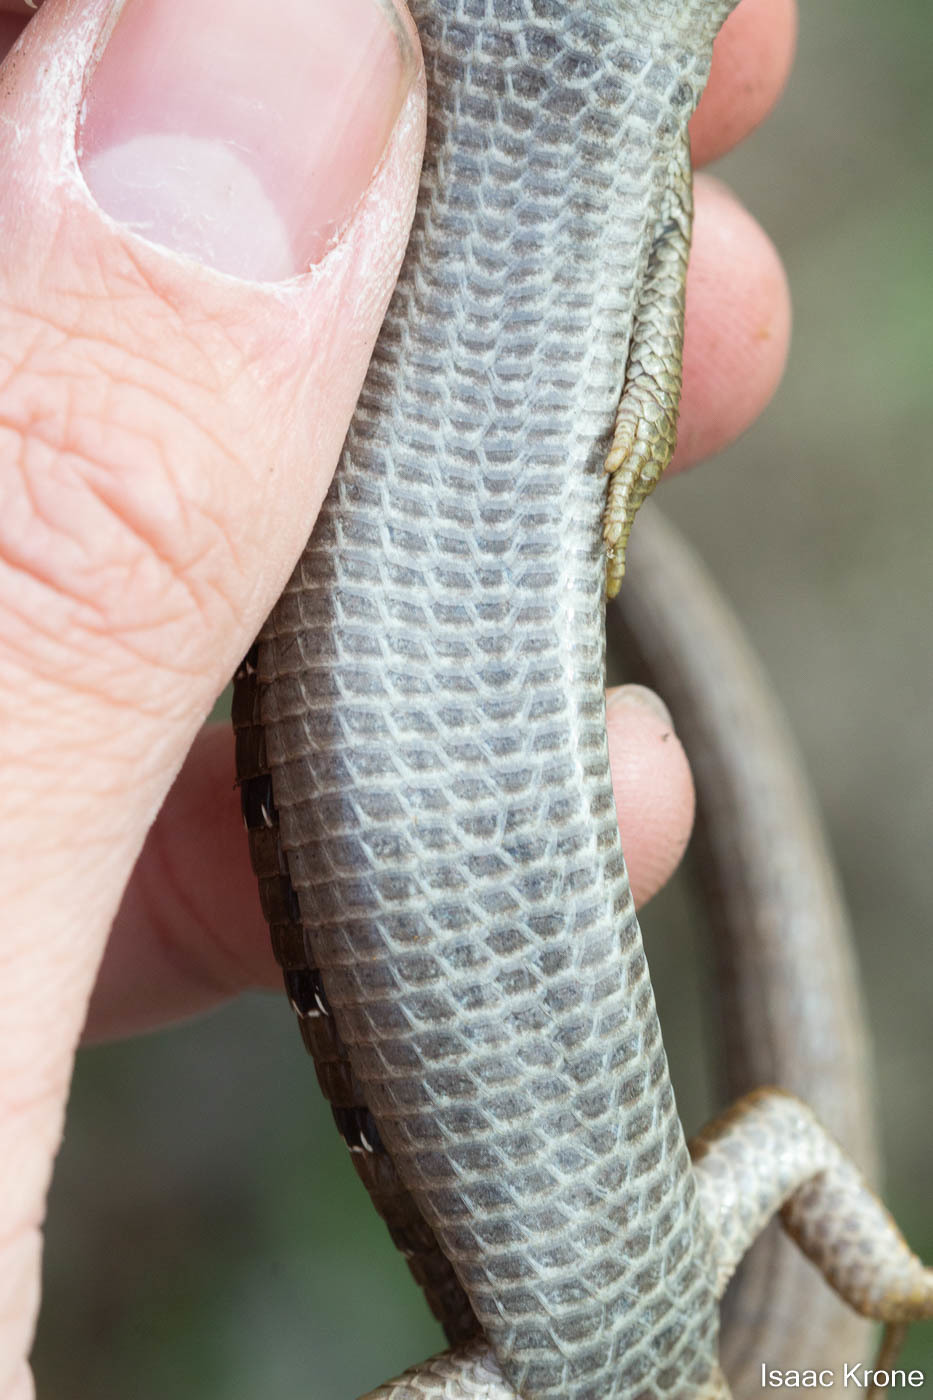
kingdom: Animalia
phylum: Chordata
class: Squamata
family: Anguidae
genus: Elgaria
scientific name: Elgaria multicarinata
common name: Southern alligator lizard
